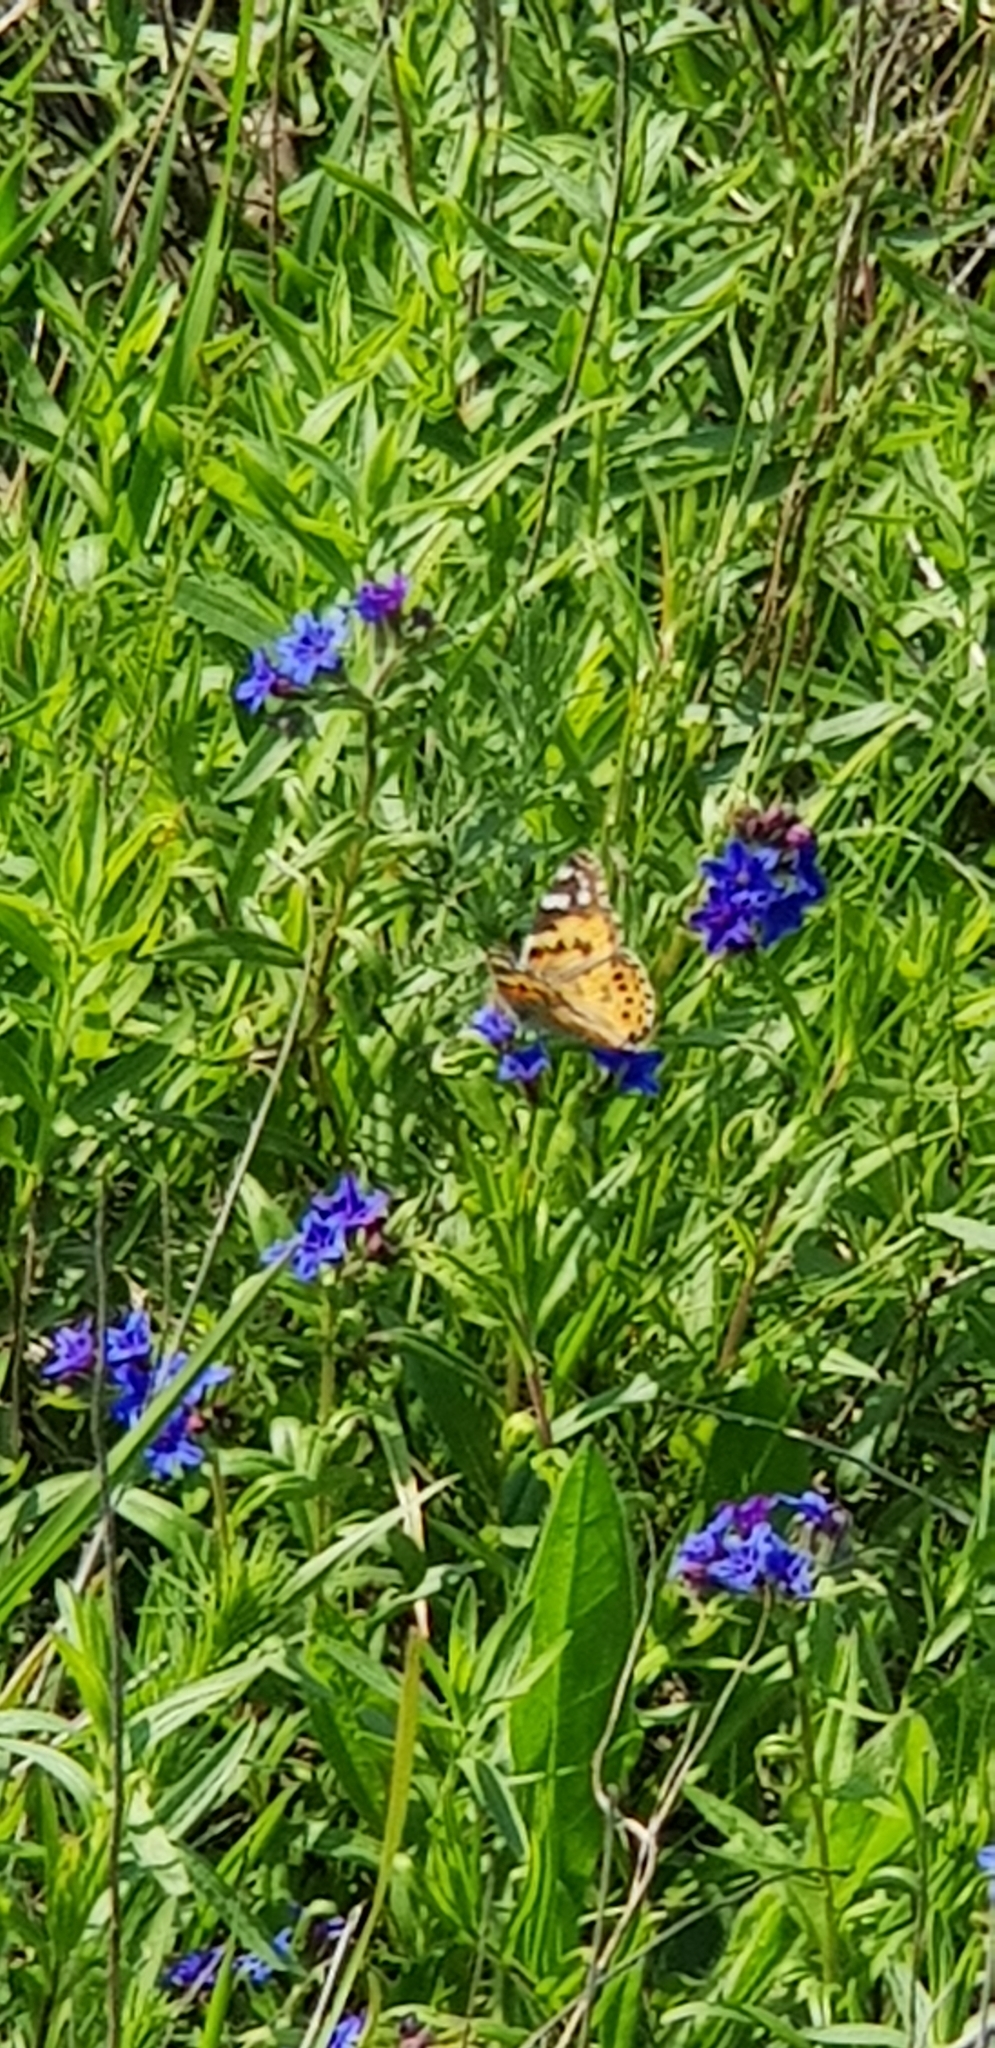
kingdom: Animalia
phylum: Arthropoda
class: Insecta
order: Lepidoptera
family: Nymphalidae
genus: Vanessa
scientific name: Vanessa cardui
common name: Painted lady
